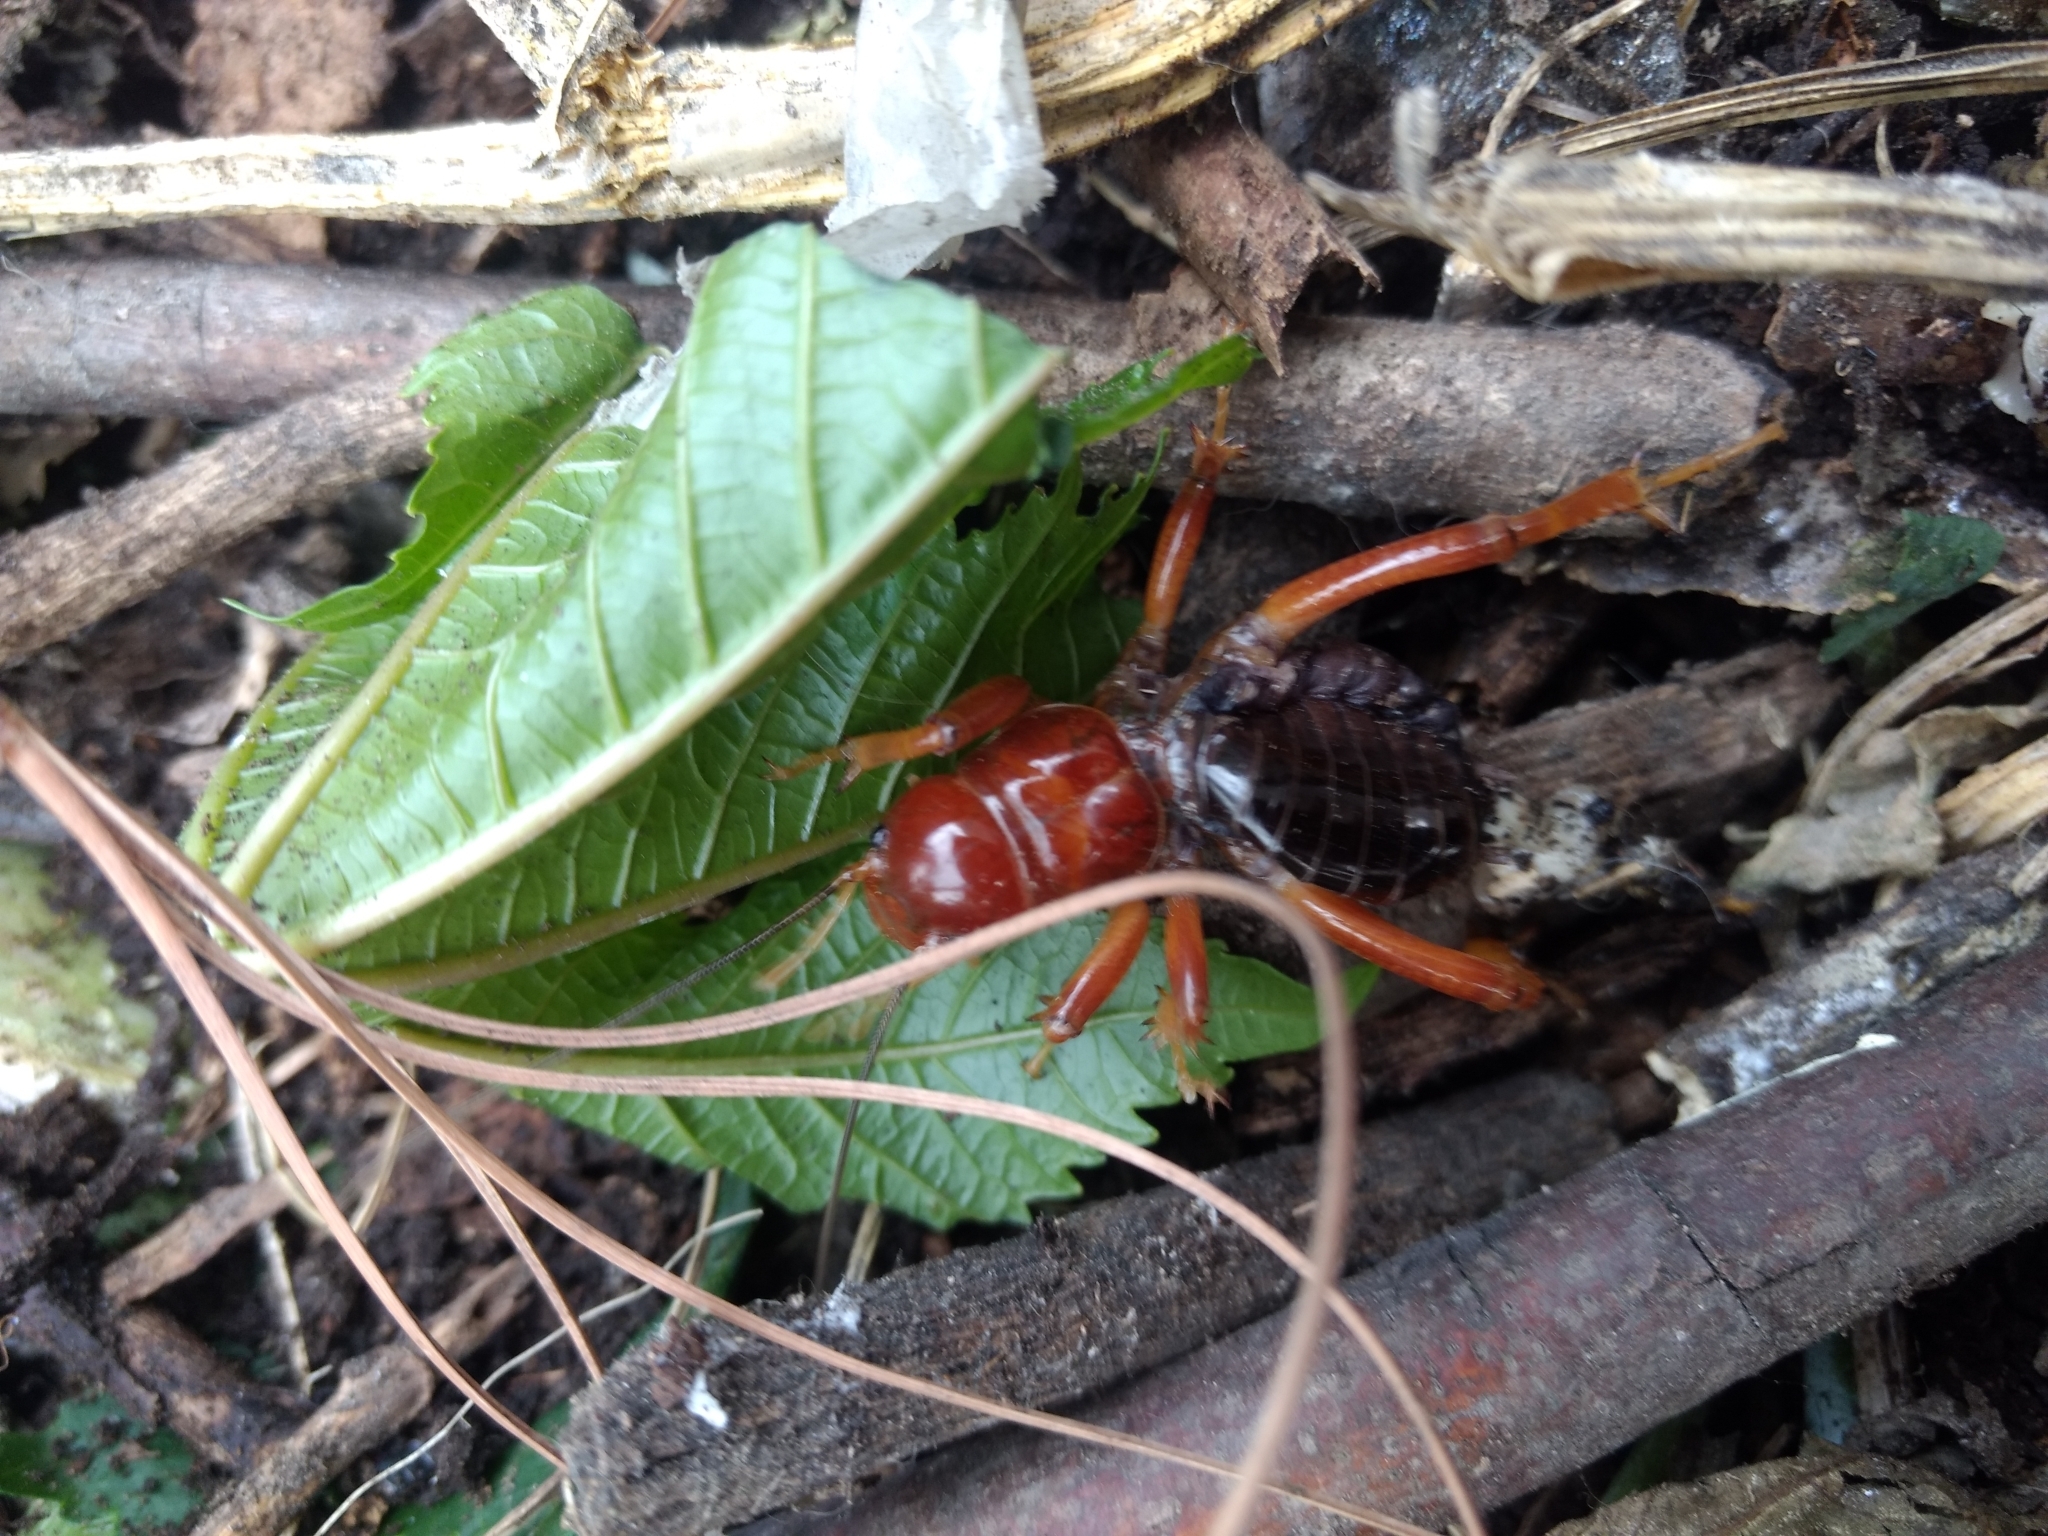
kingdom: Animalia
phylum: Arthropoda
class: Insecta
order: Orthoptera
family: Stenopelmatidae
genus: Stenopelmatus
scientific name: Stenopelmatus talpa
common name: Mole jerusalem cricket
